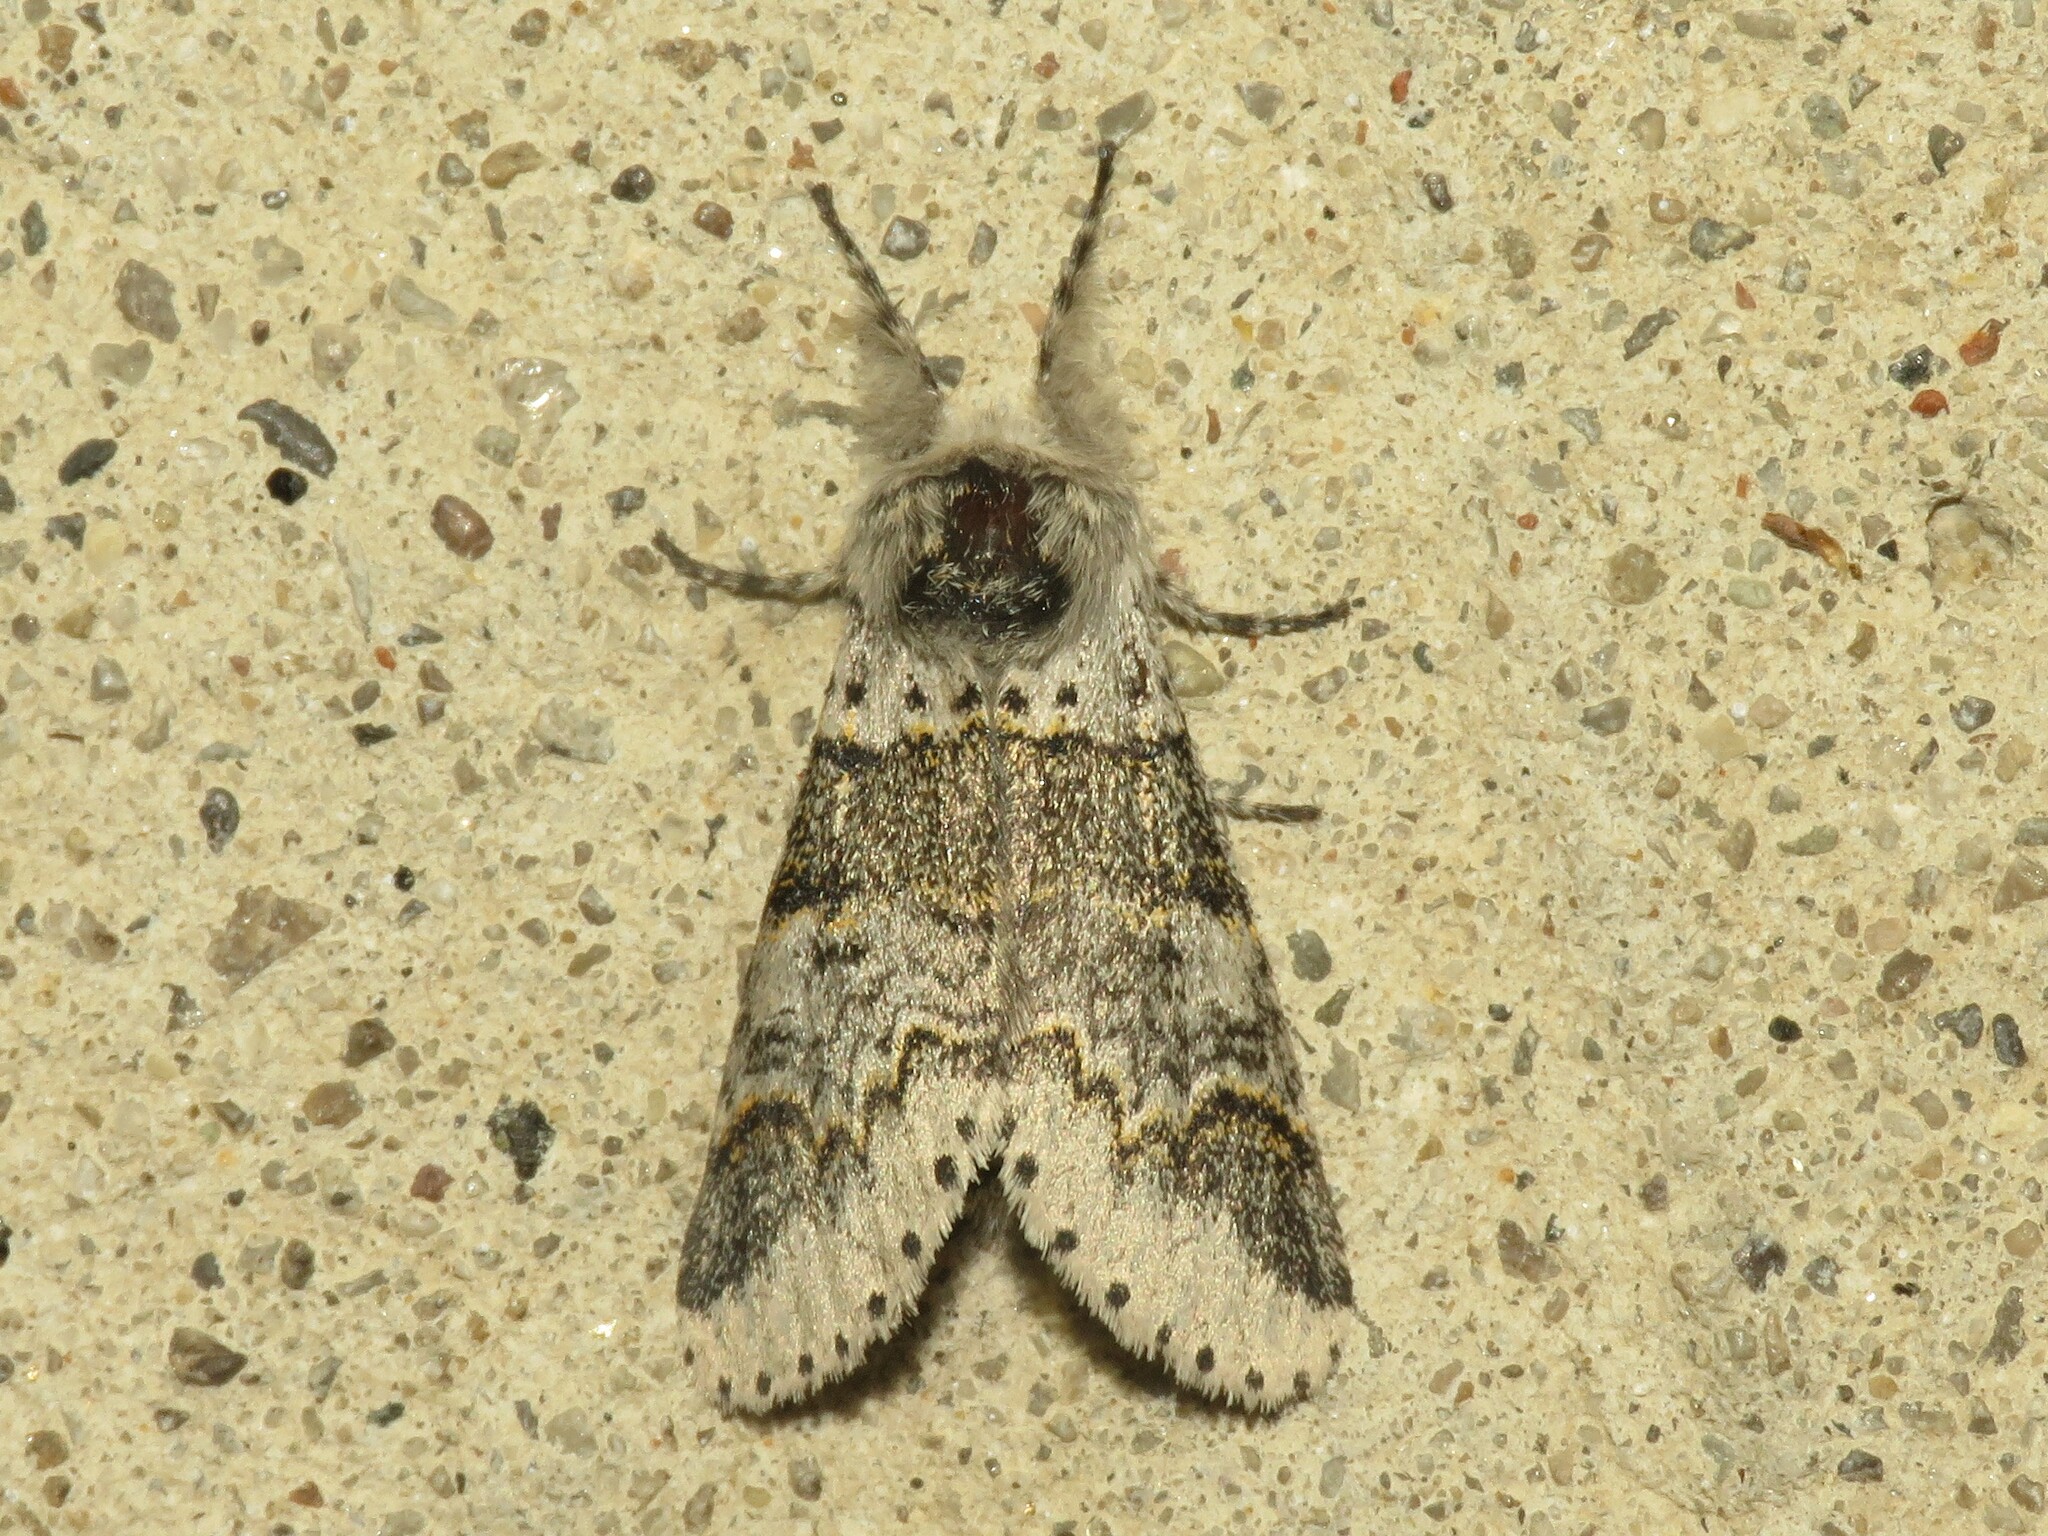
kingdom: Animalia
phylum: Arthropoda
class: Insecta
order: Lepidoptera
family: Notodontidae
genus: Furcula
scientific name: Furcula occidentalis
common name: Western furcula moth
